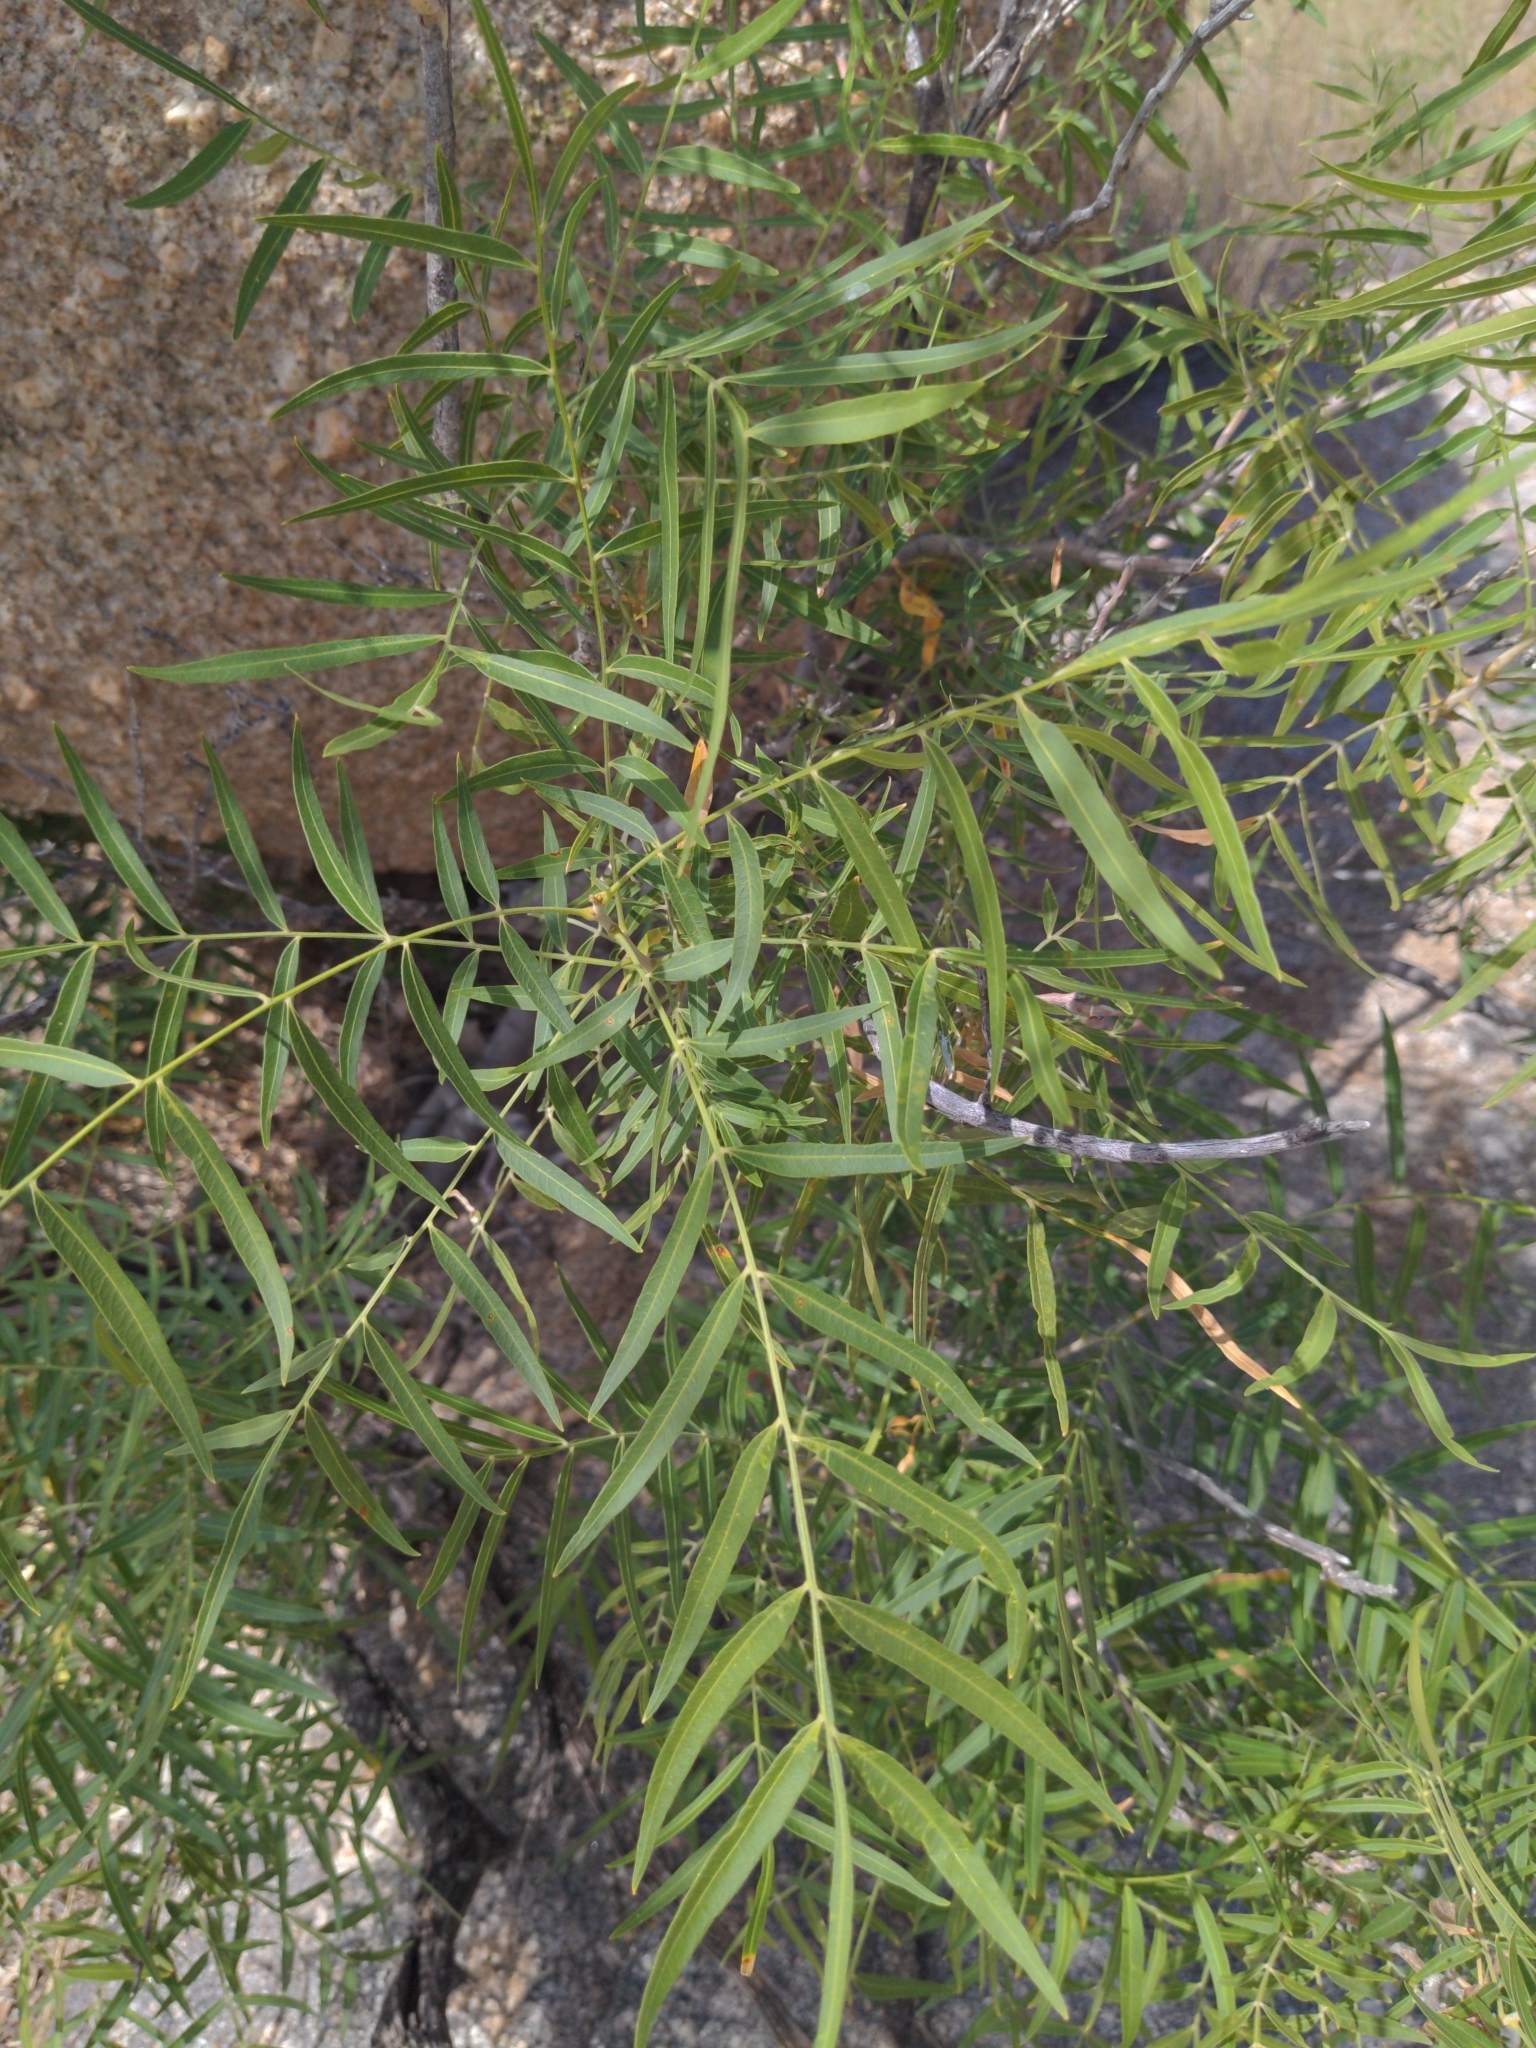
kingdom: Plantae
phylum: Tracheophyta
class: Magnoliopsida
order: Sapindales
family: Sapindaceae
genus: Sapindus
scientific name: Sapindus drummondii
